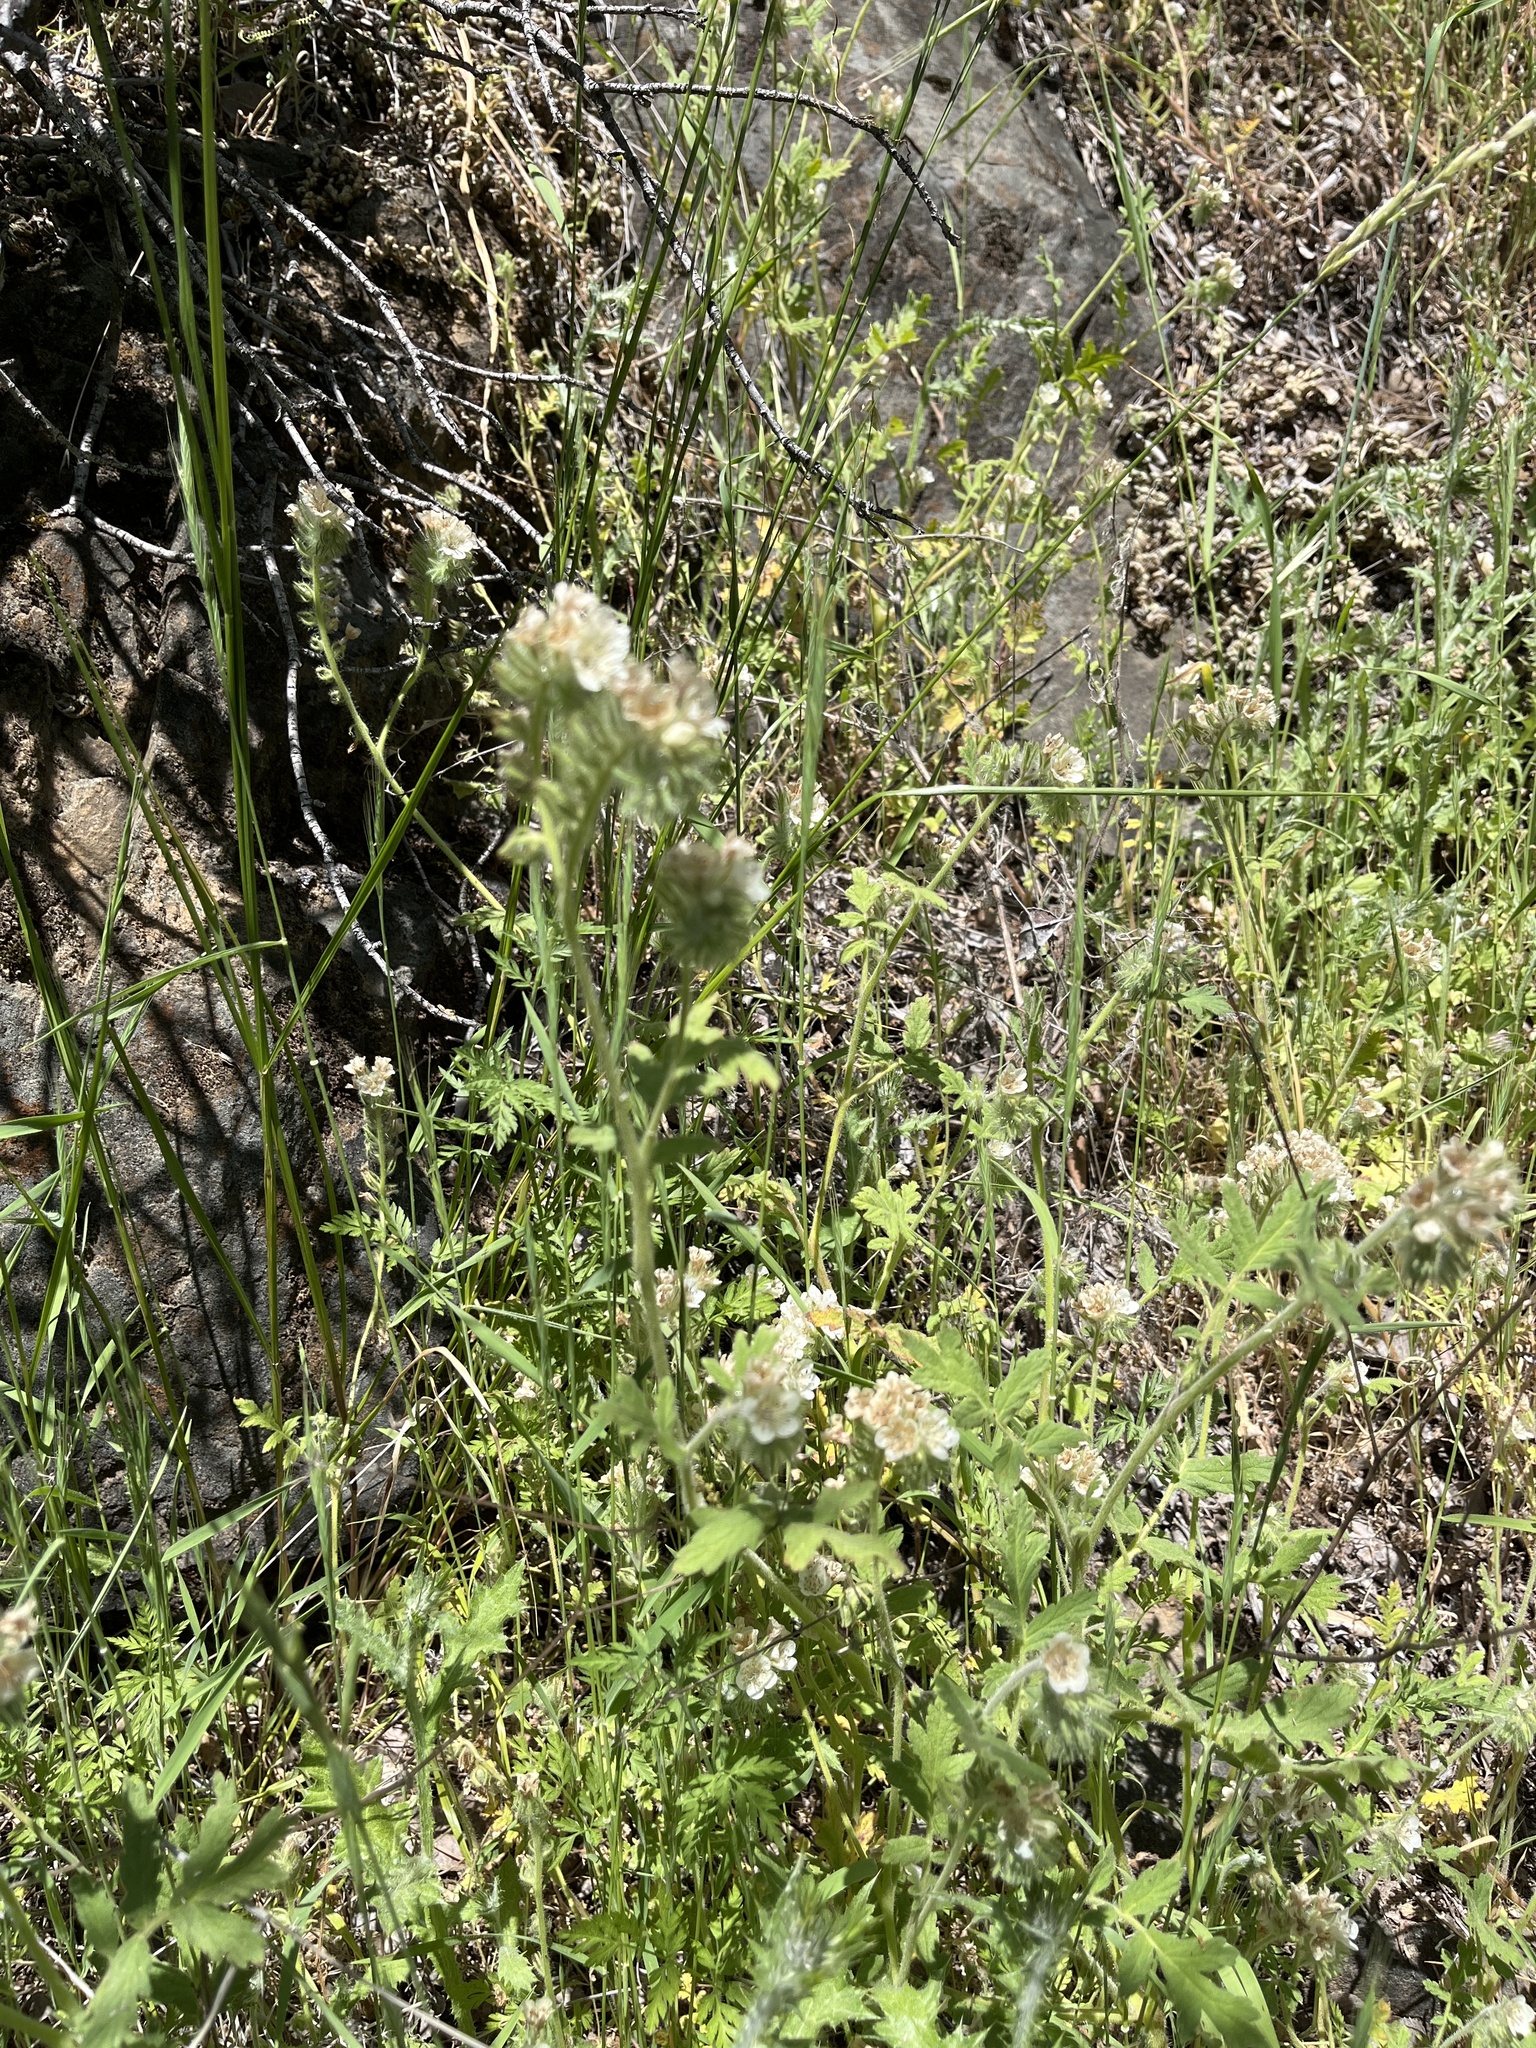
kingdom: Plantae
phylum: Tracheophyta
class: Magnoliopsida
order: Boraginales
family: Hydrophyllaceae
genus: Phacelia
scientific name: Phacelia cicutaria
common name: Caterpillar phacelia
